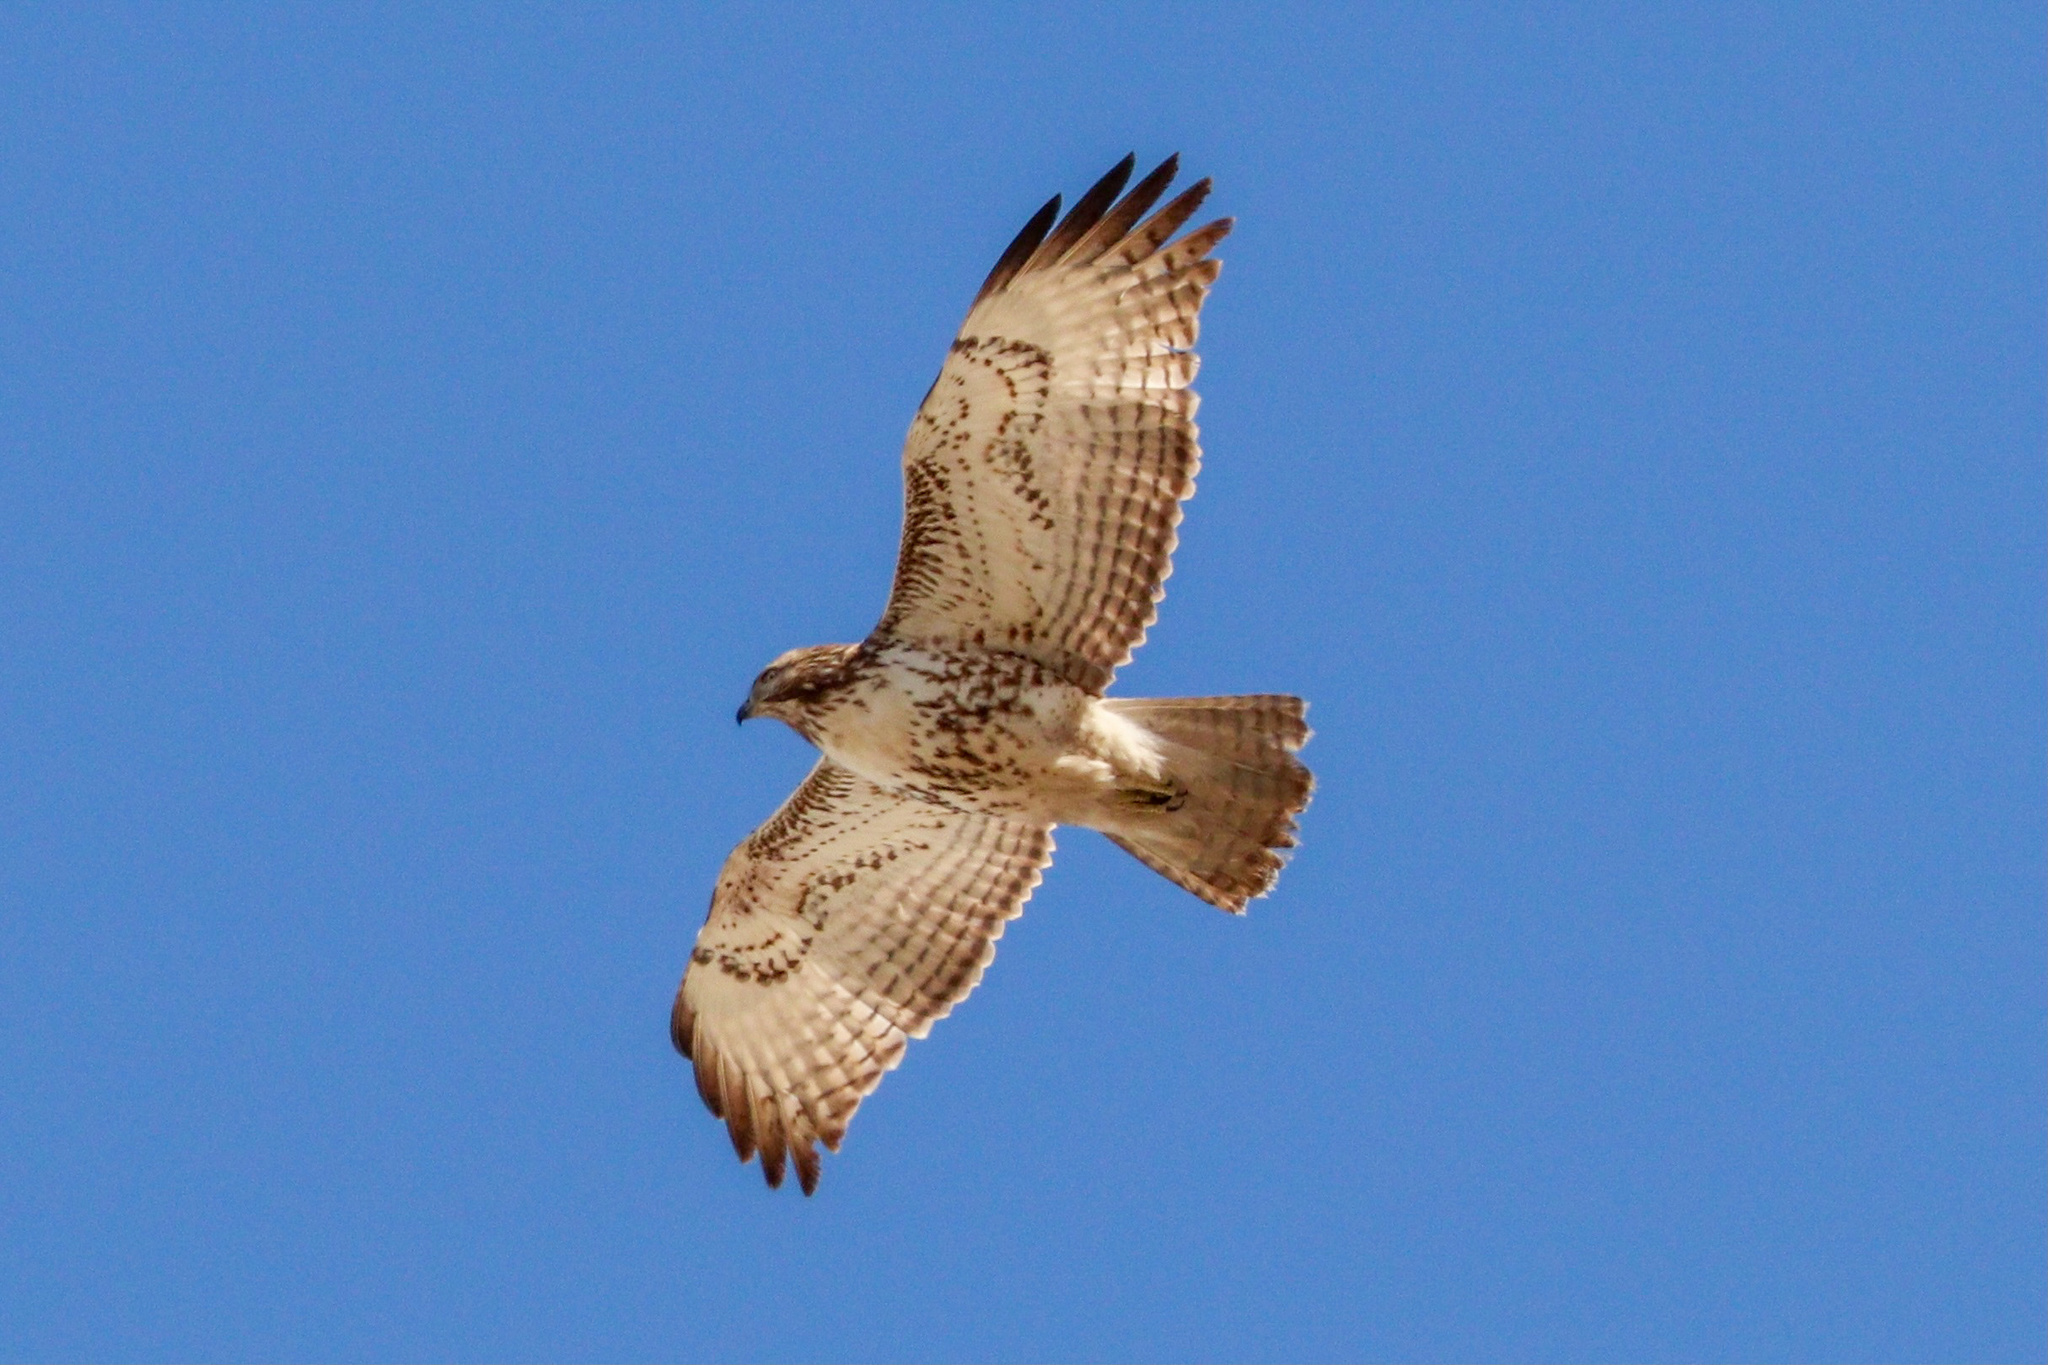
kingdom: Animalia
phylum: Chordata
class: Aves
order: Accipitriformes
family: Accipitridae
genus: Buteo
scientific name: Buteo jamaicensis
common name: Red-tailed hawk
